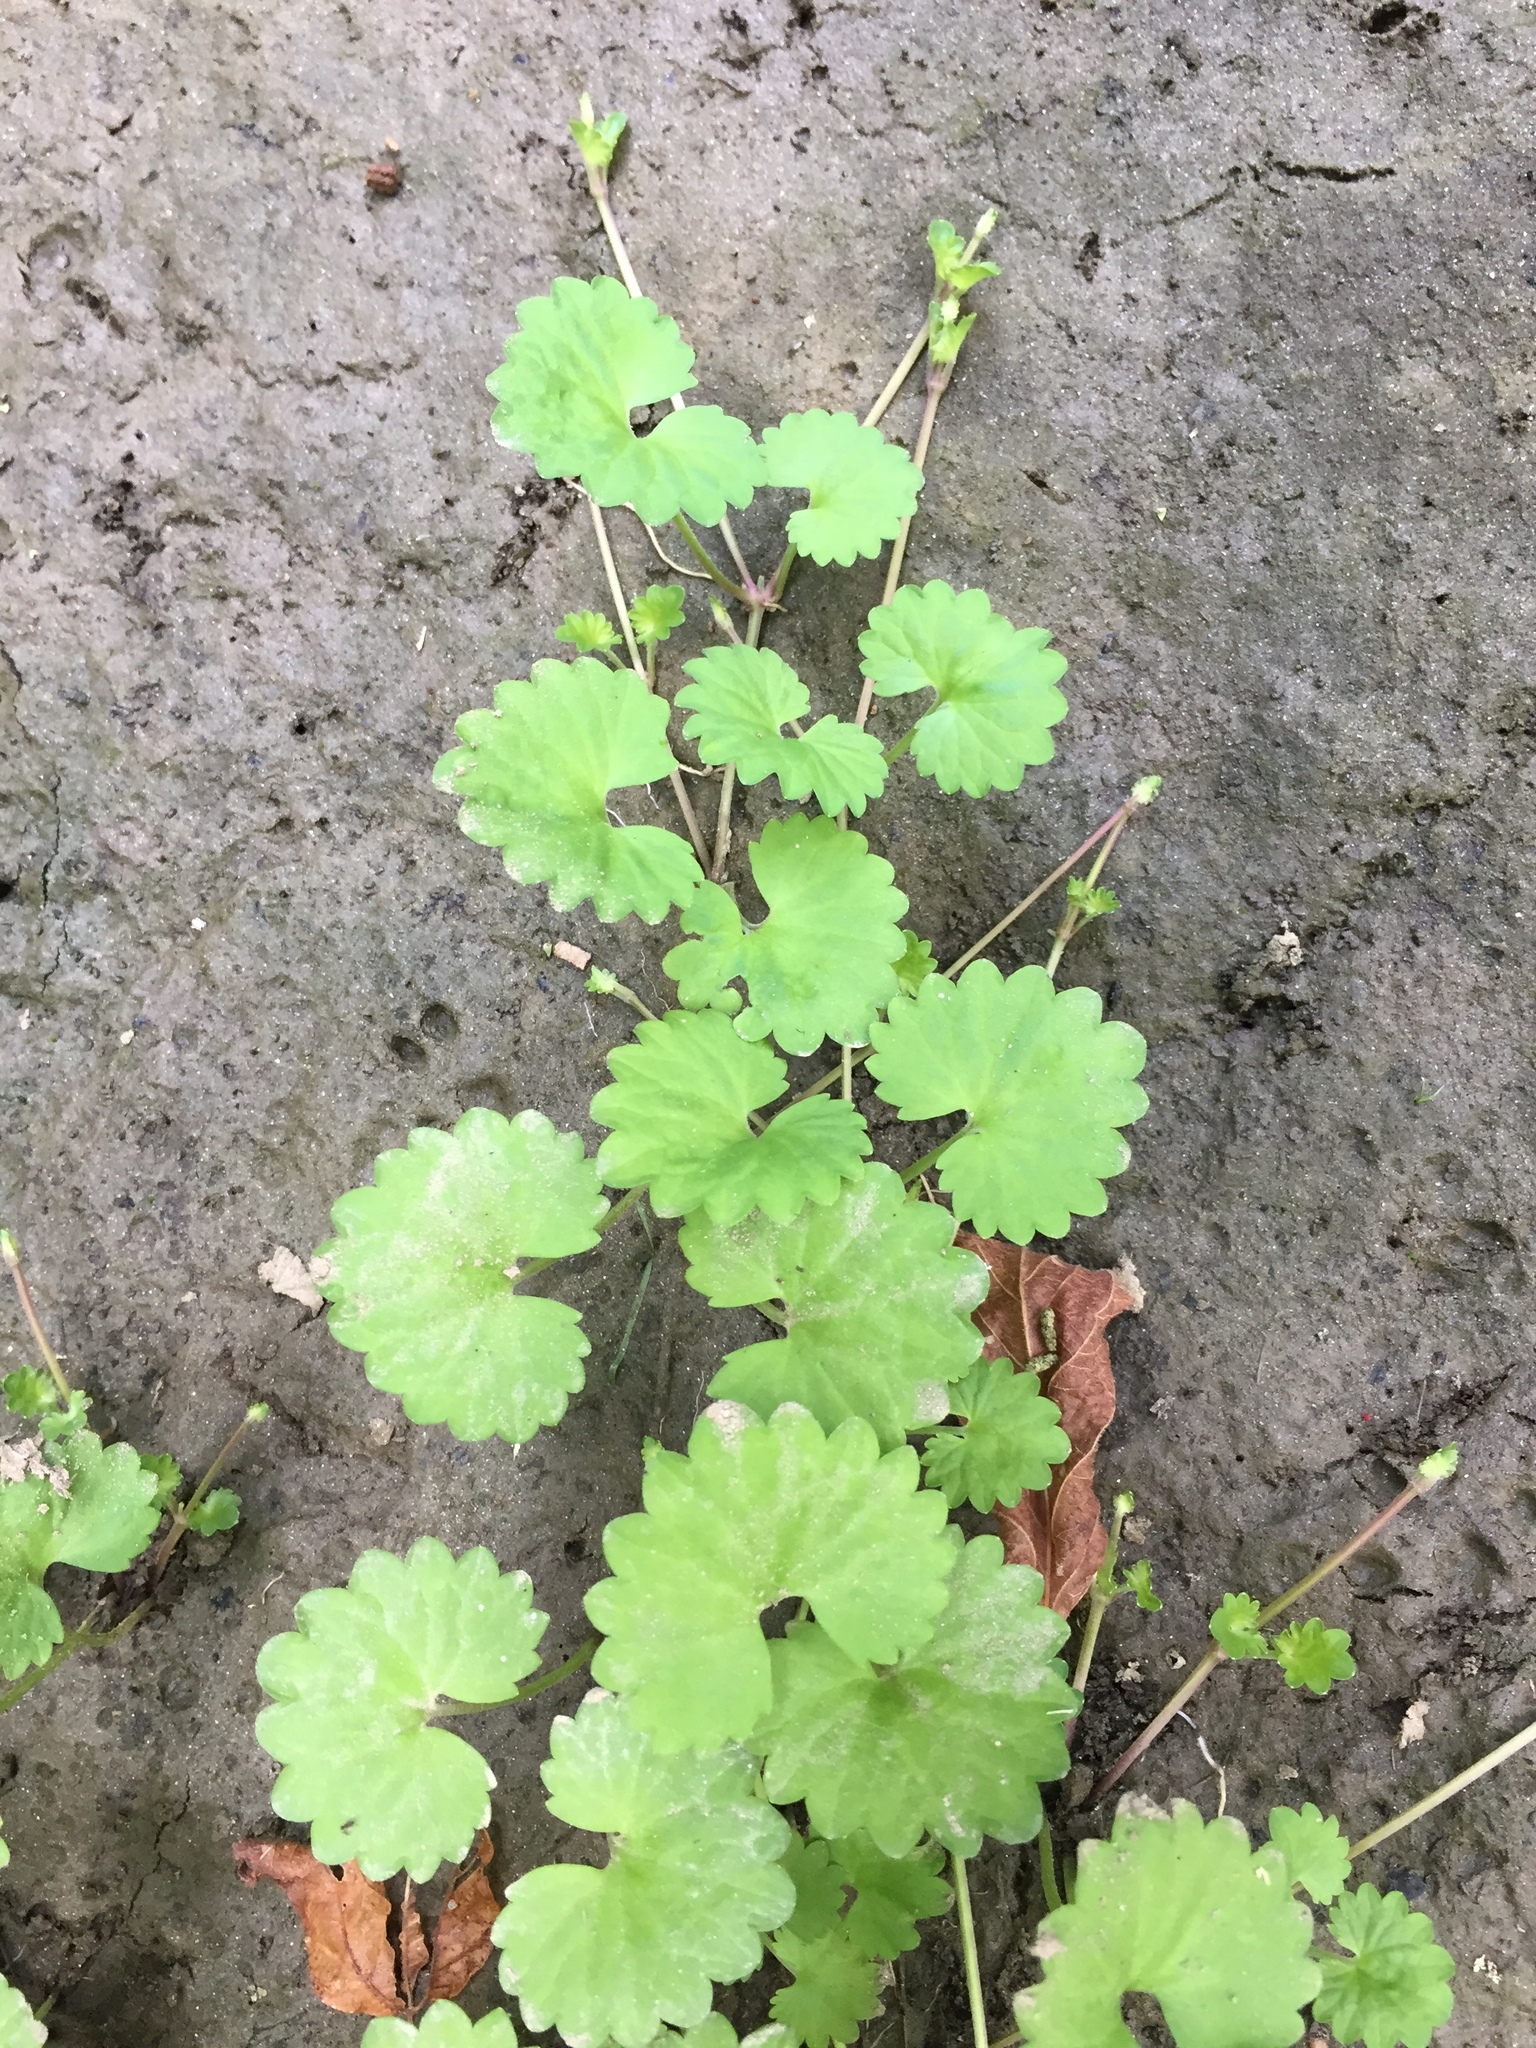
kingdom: Plantae
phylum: Tracheophyta
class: Magnoliopsida
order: Lamiales
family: Lamiaceae
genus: Glechoma
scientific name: Glechoma hederacea
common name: Ground ivy
